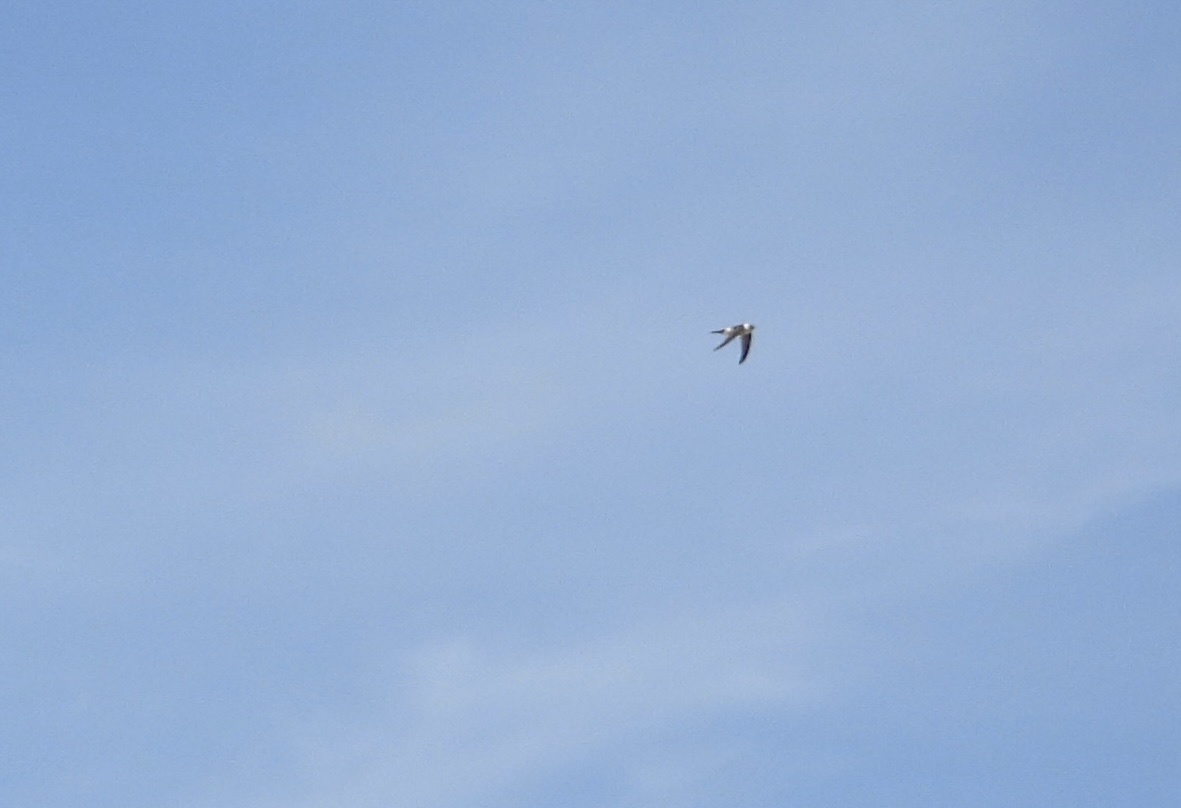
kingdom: Animalia
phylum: Chordata
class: Aves
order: Apodiformes
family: Apodidae
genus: Aeronautes
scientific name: Aeronautes andecolus
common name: Andean swift
